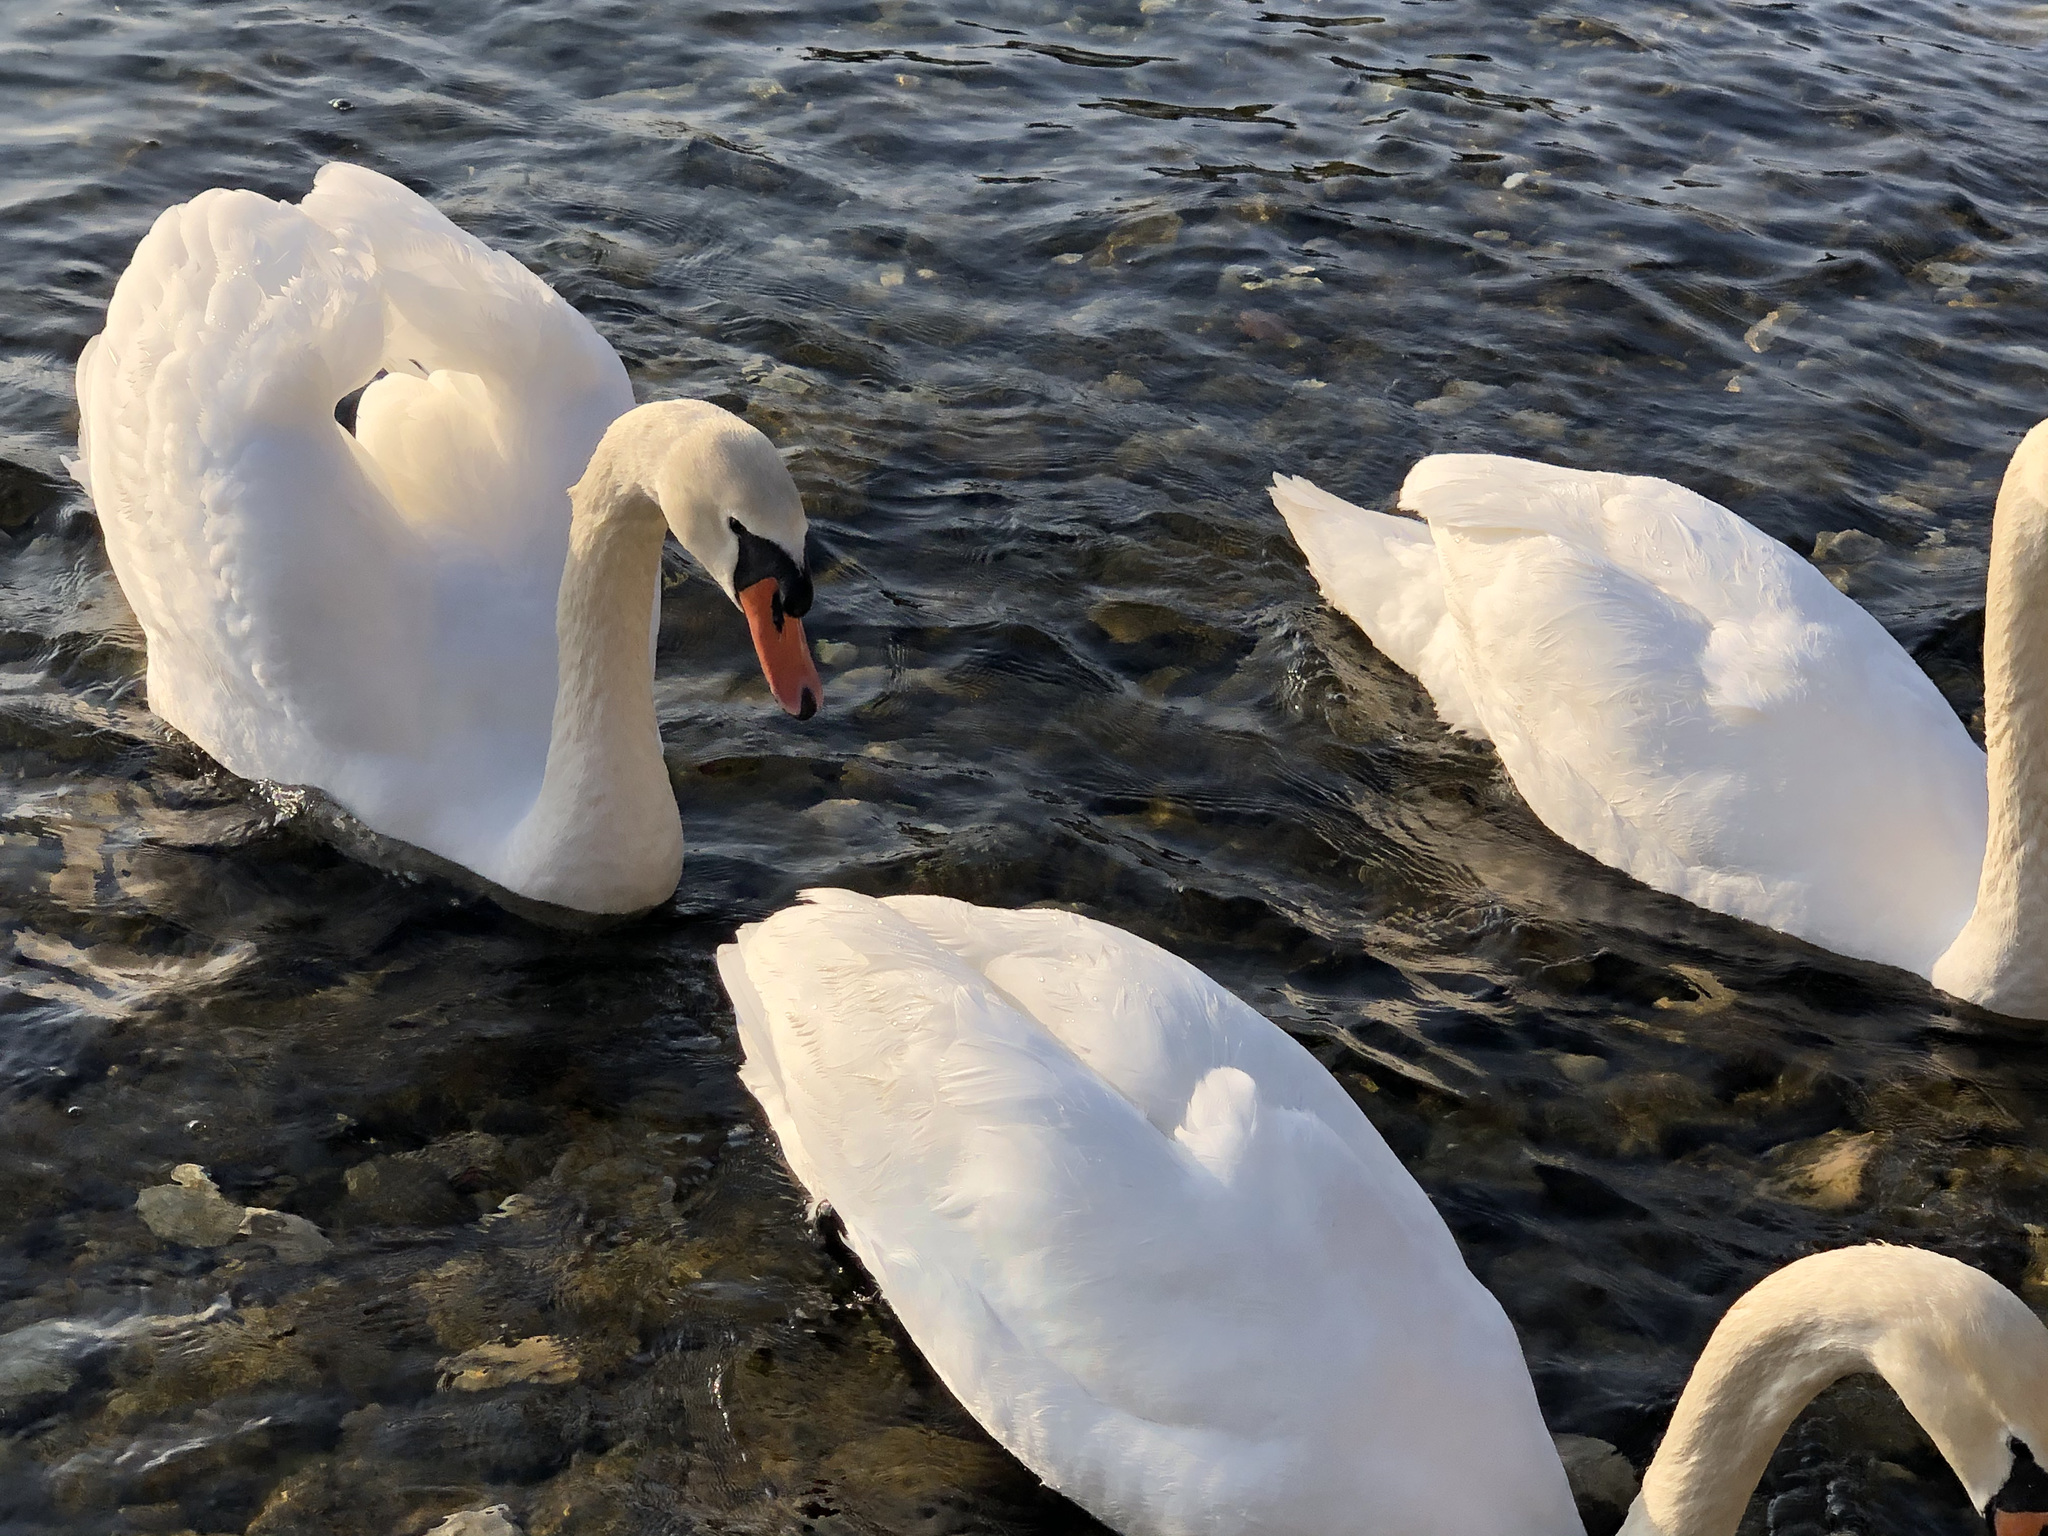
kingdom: Animalia
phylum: Chordata
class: Aves
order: Anseriformes
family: Anatidae
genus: Cygnus
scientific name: Cygnus olor
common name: Mute swan
